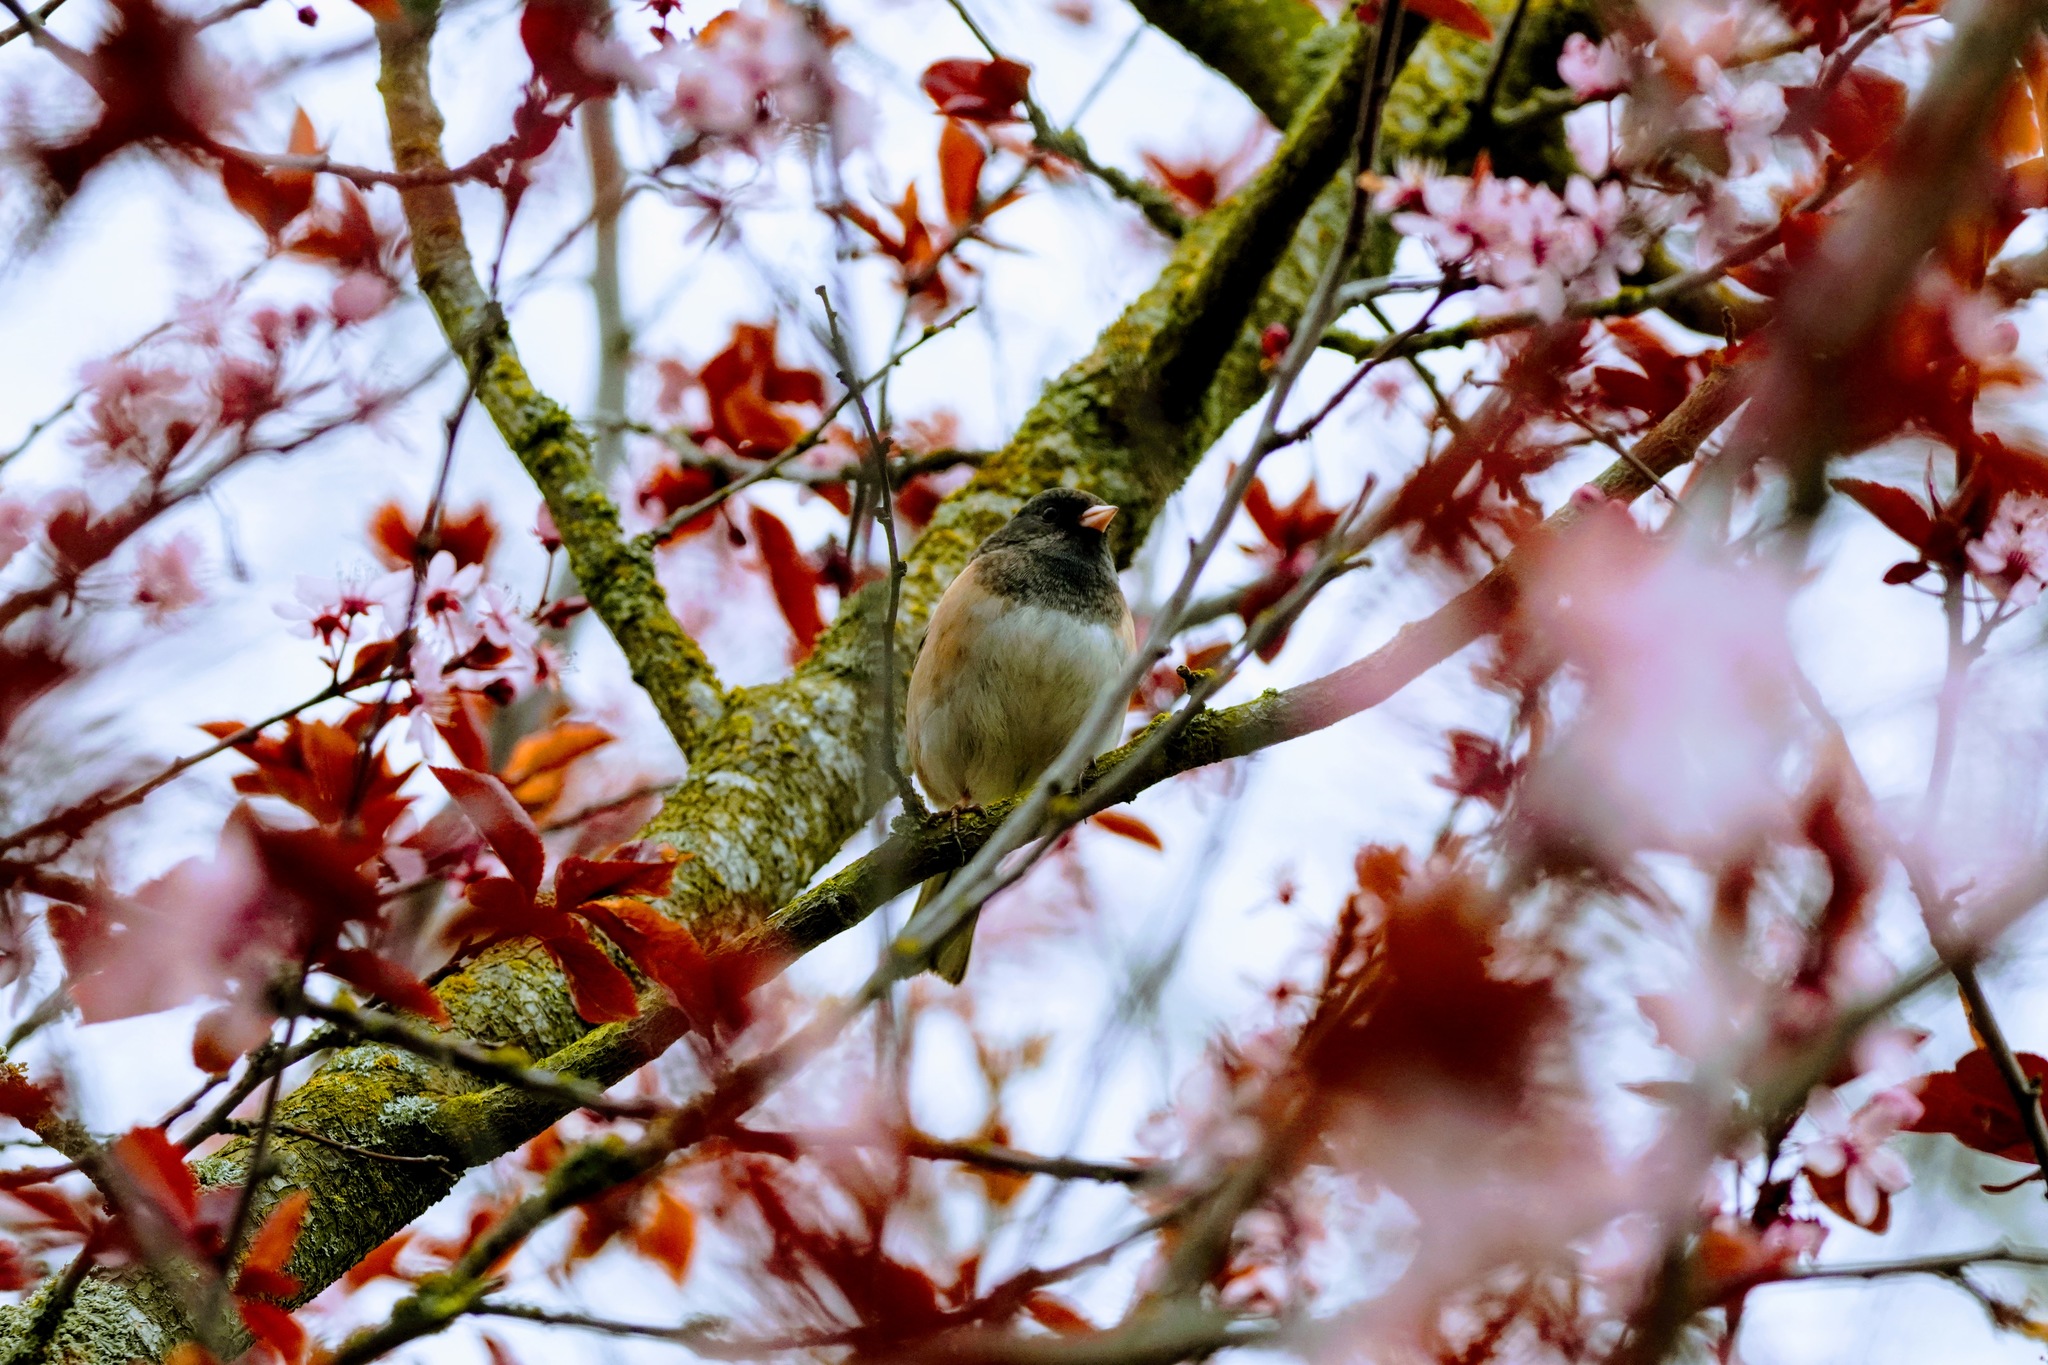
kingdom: Animalia
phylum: Chordata
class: Aves
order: Passeriformes
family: Passerellidae
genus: Junco
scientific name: Junco hyemalis
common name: Dark-eyed junco
